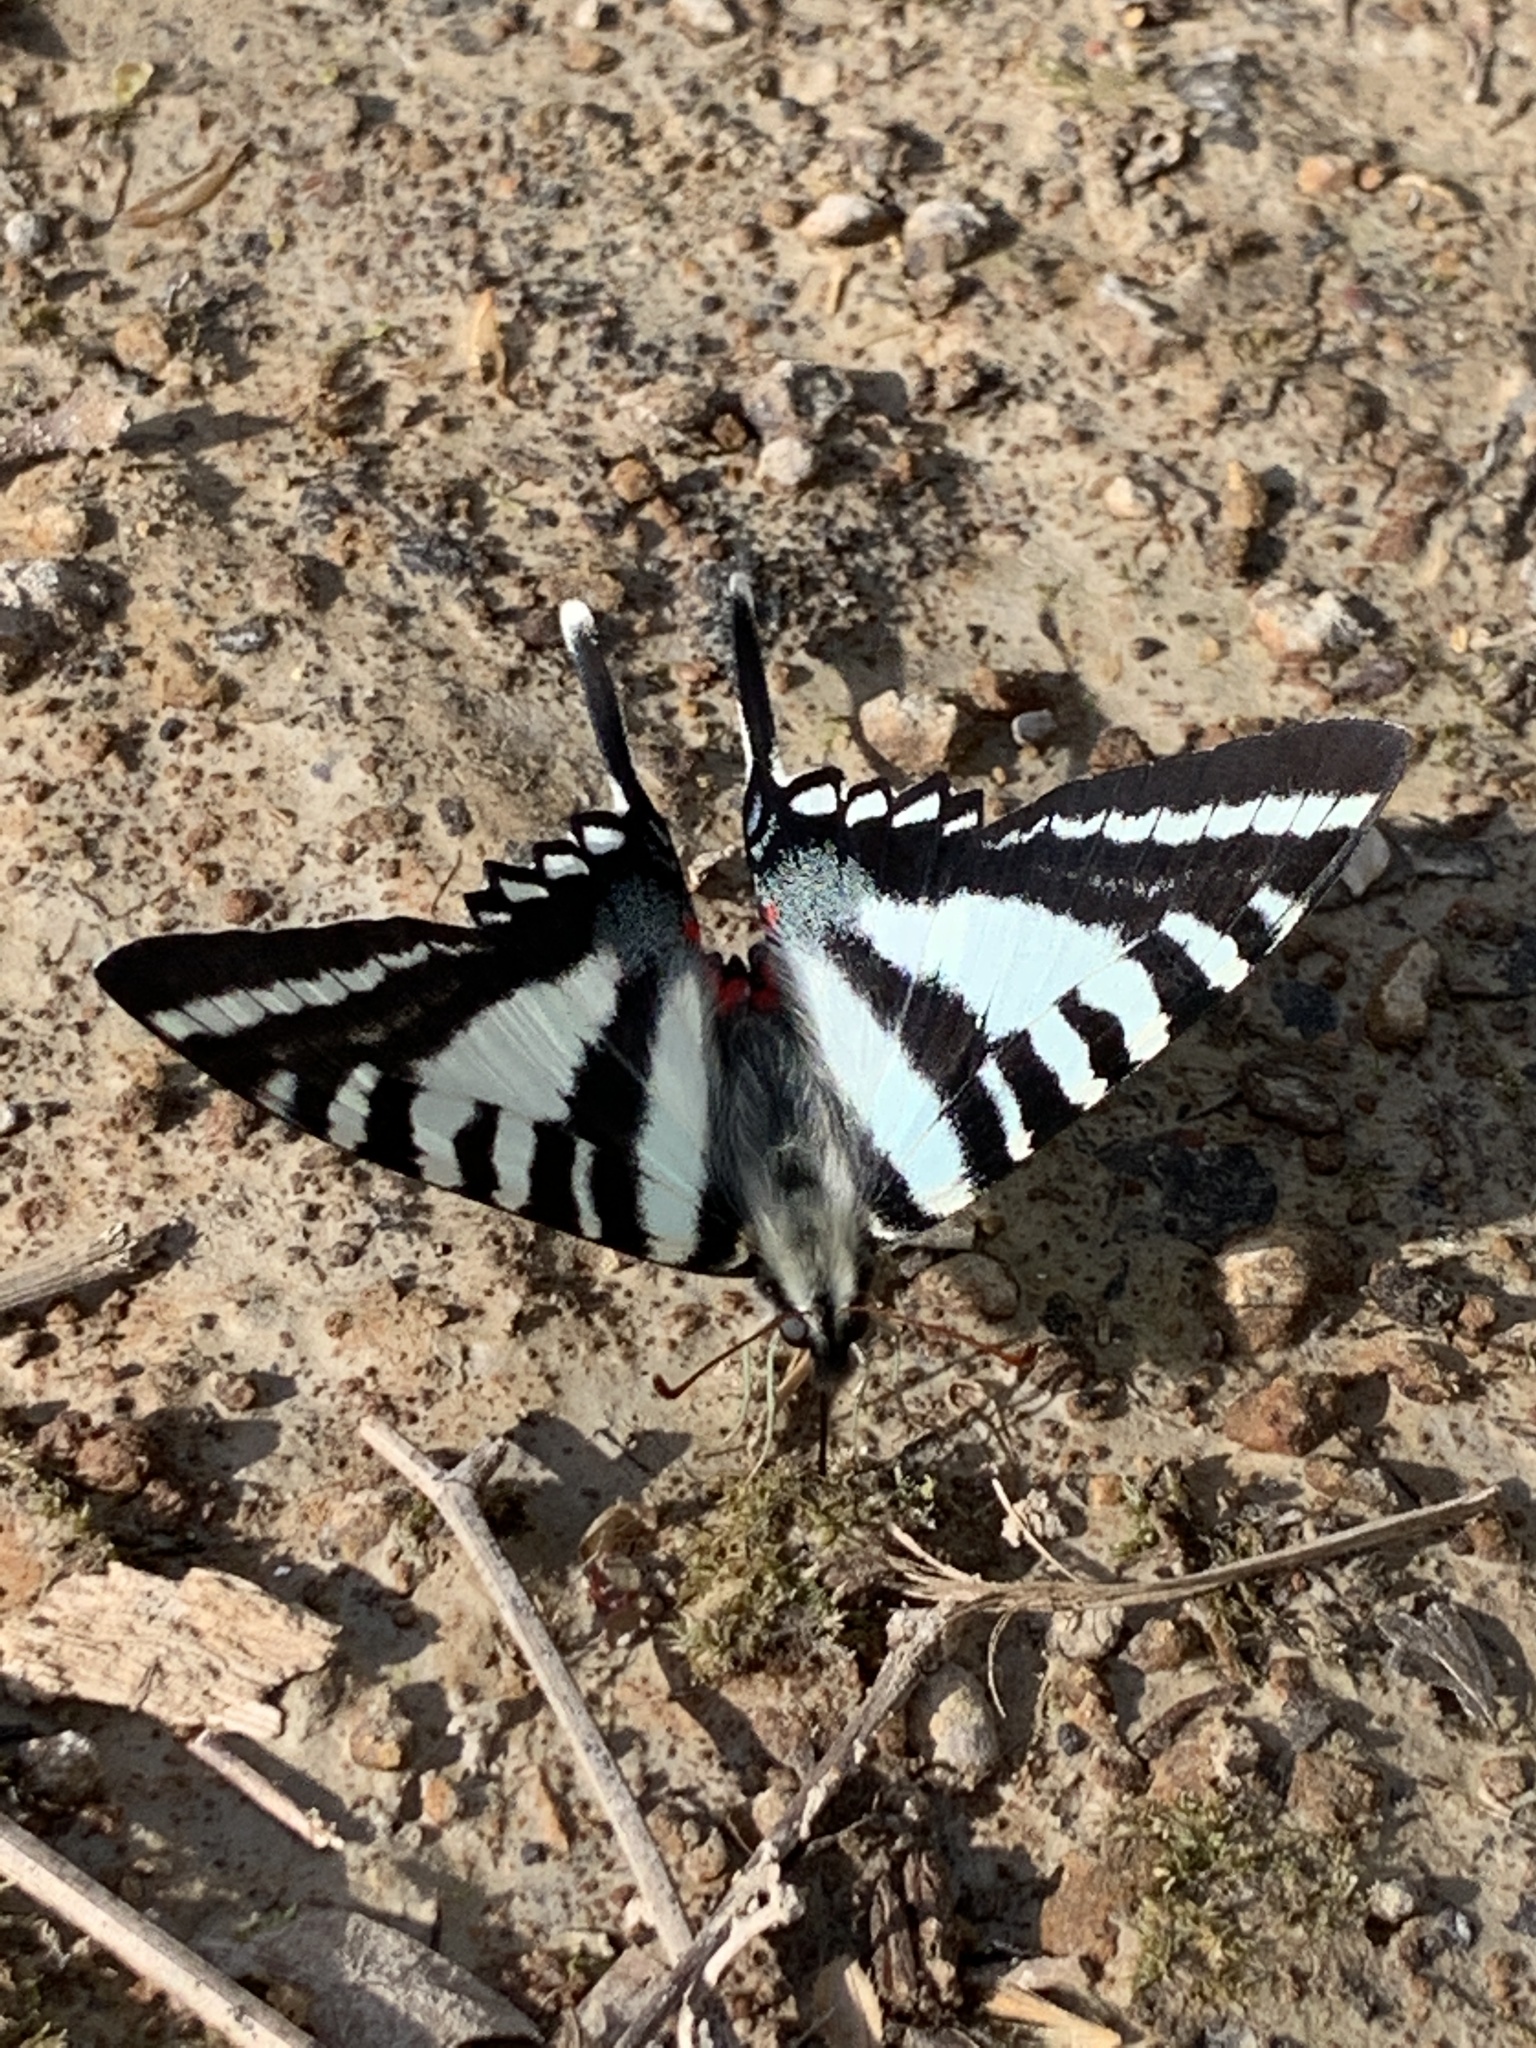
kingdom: Animalia
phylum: Arthropoda
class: Insecta
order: Lepidoptera
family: Papilionidae
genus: Protographium
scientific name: Protographium marcellus
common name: Zebra swallowtail
